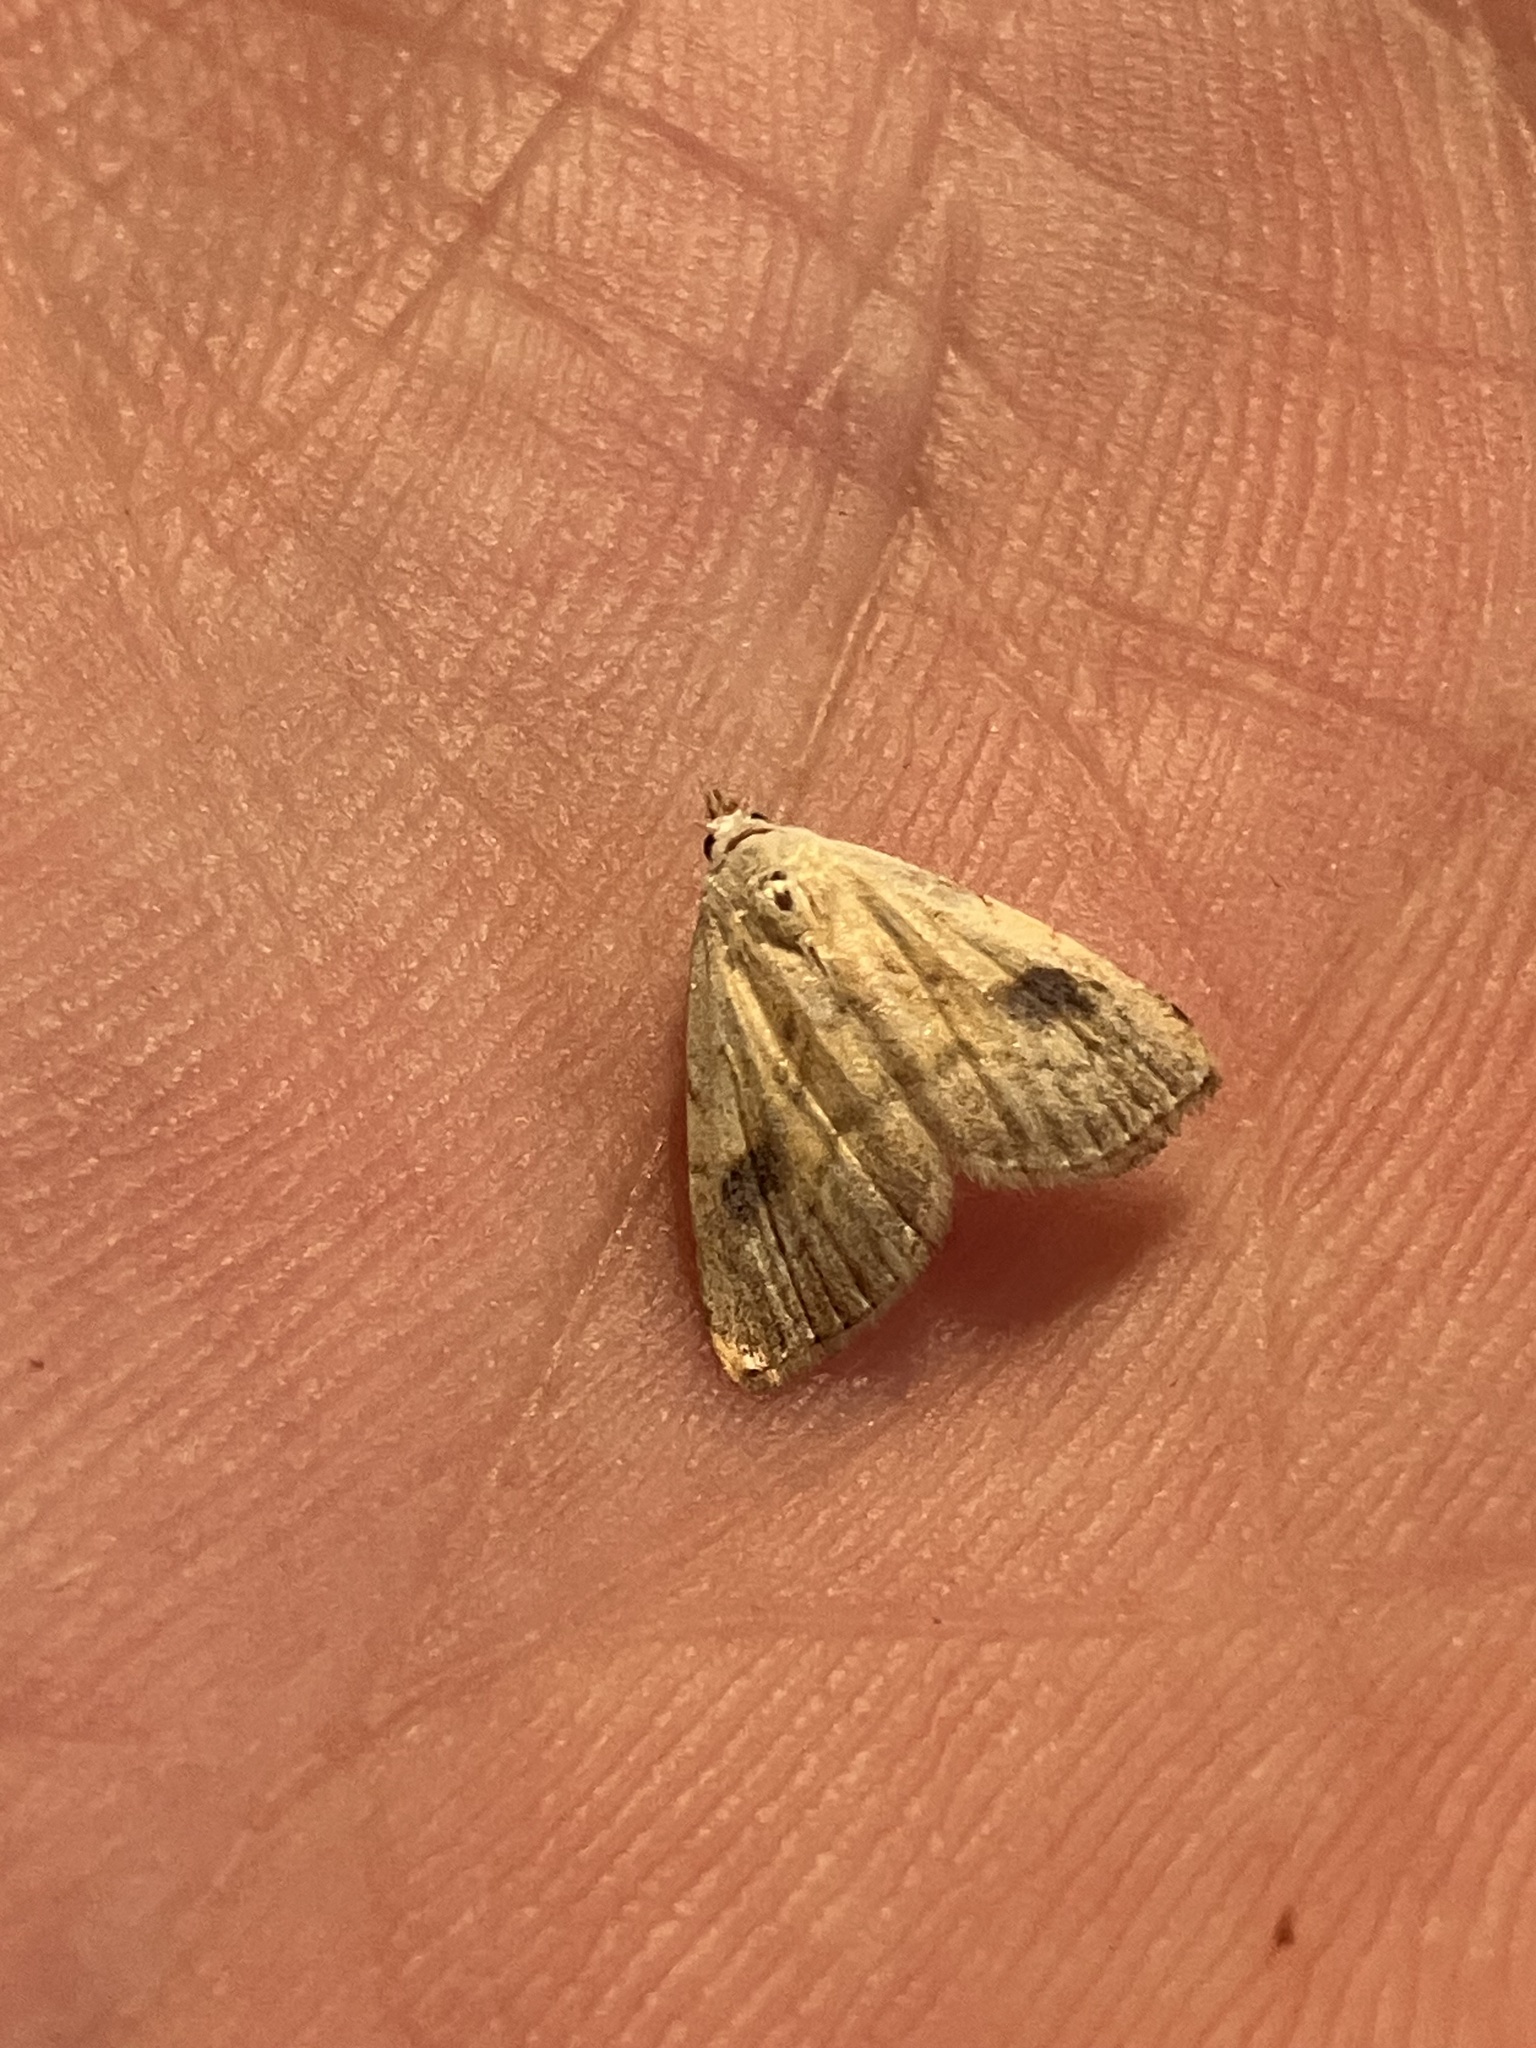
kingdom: Animalia
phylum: Arthropoda
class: Insecta
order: Lepidoptera
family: Erebidae
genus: Rivula
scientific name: Rivula sericealis
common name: Straw dot
